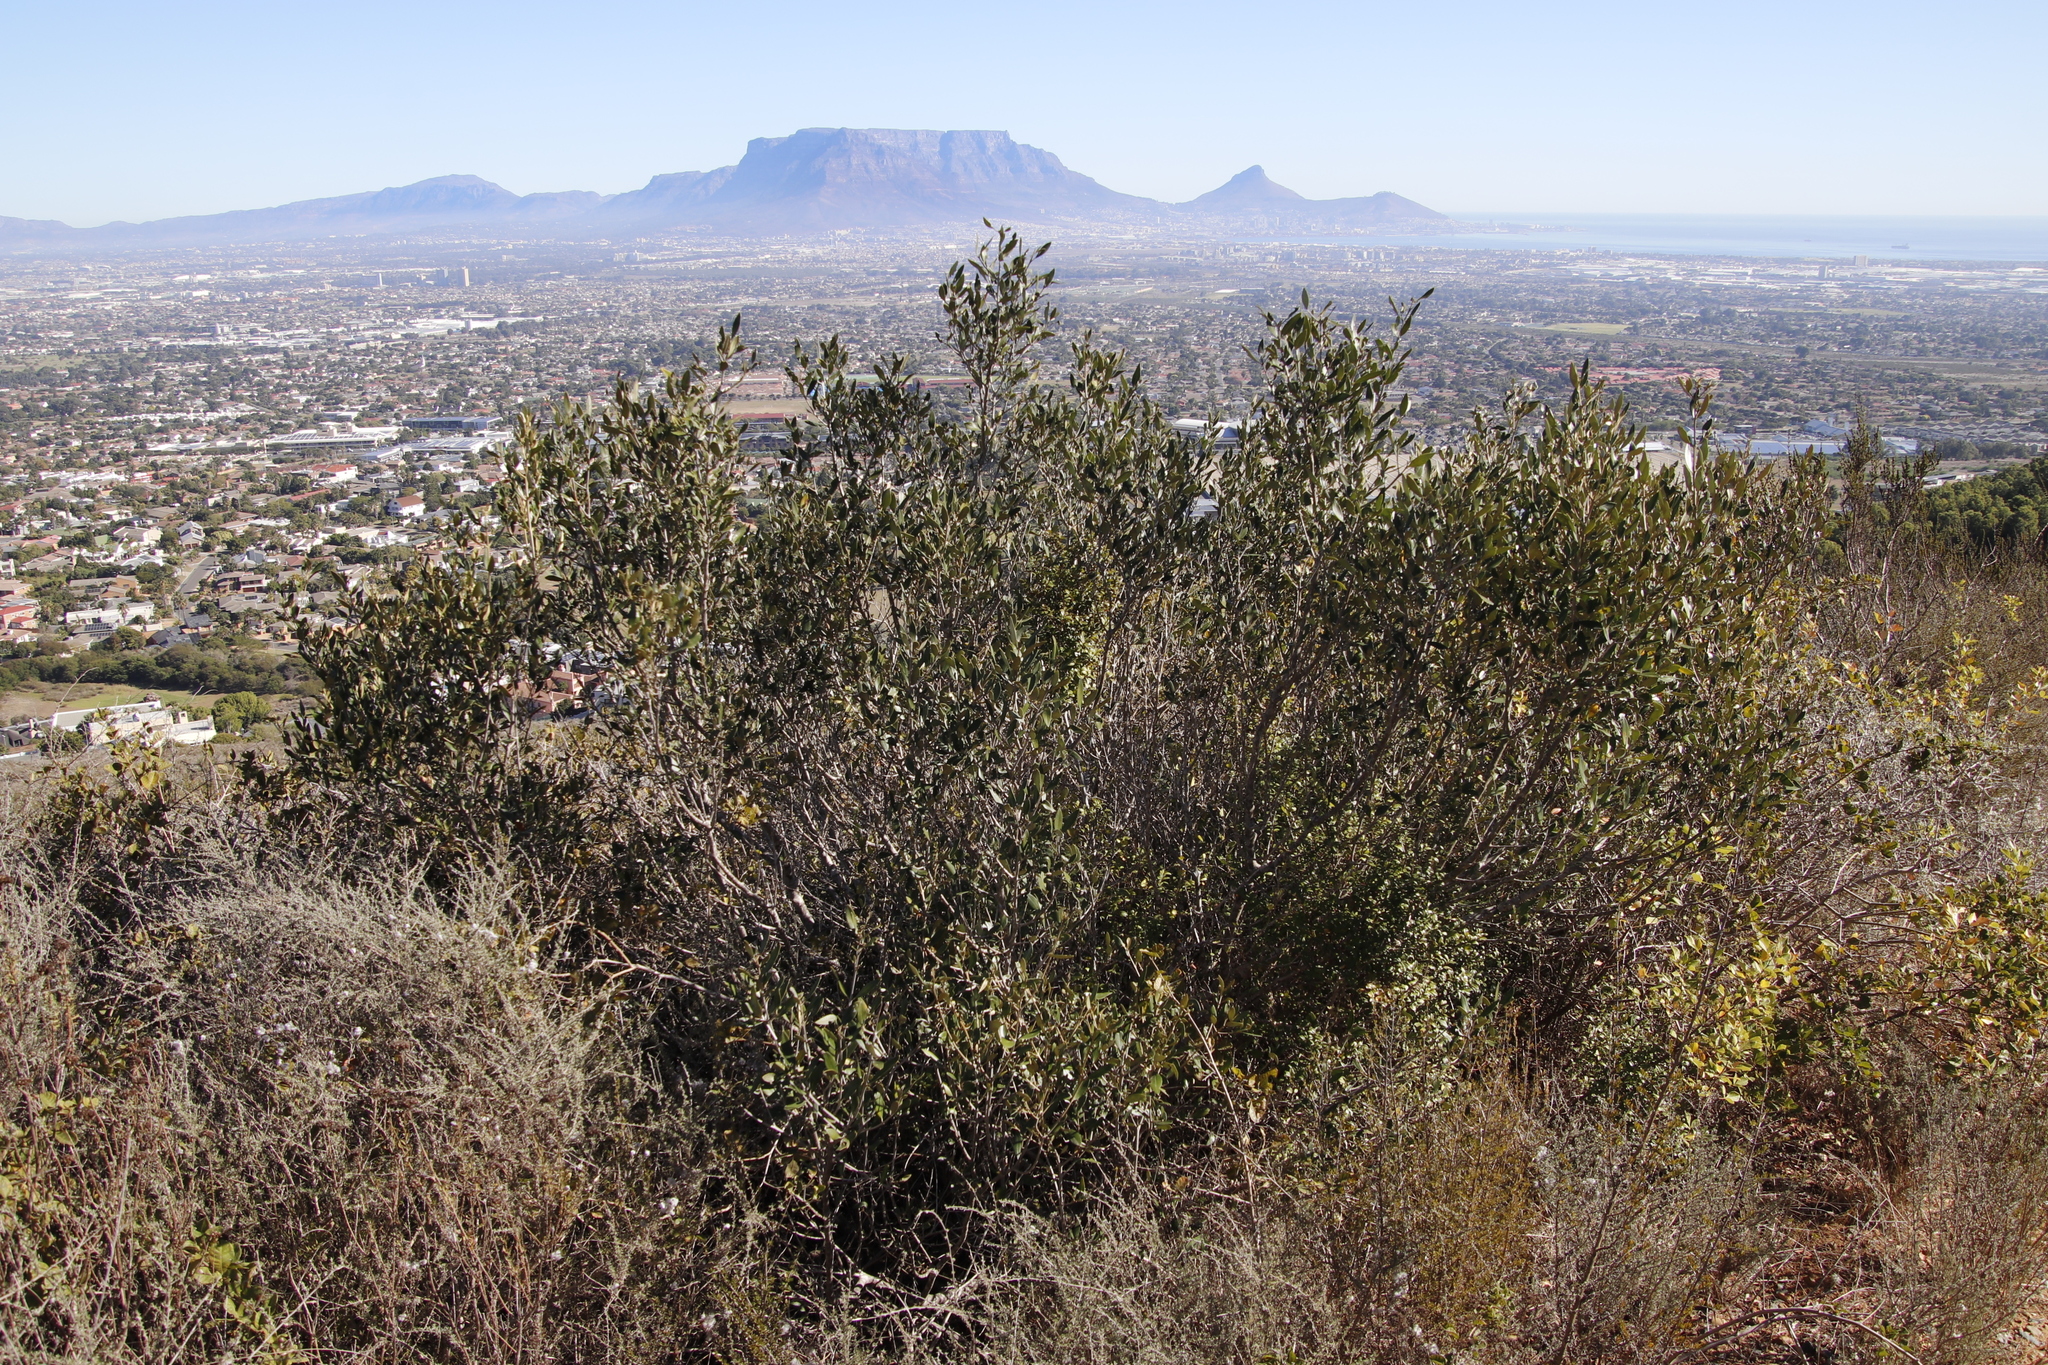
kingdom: Plantae
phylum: Tracheophyta
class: Magnoliopsida
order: Lamiales
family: Oleaceae
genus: Olea
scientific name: Olea europaea
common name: Olive
